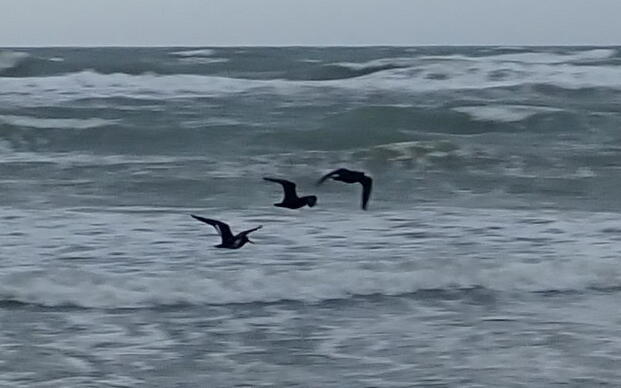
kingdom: Animalia
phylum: Chordata
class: Aves
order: Charadriiformes
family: Haematopodidae
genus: Haematopus
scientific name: Haematopus unicolor
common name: Variable oystercatcher
